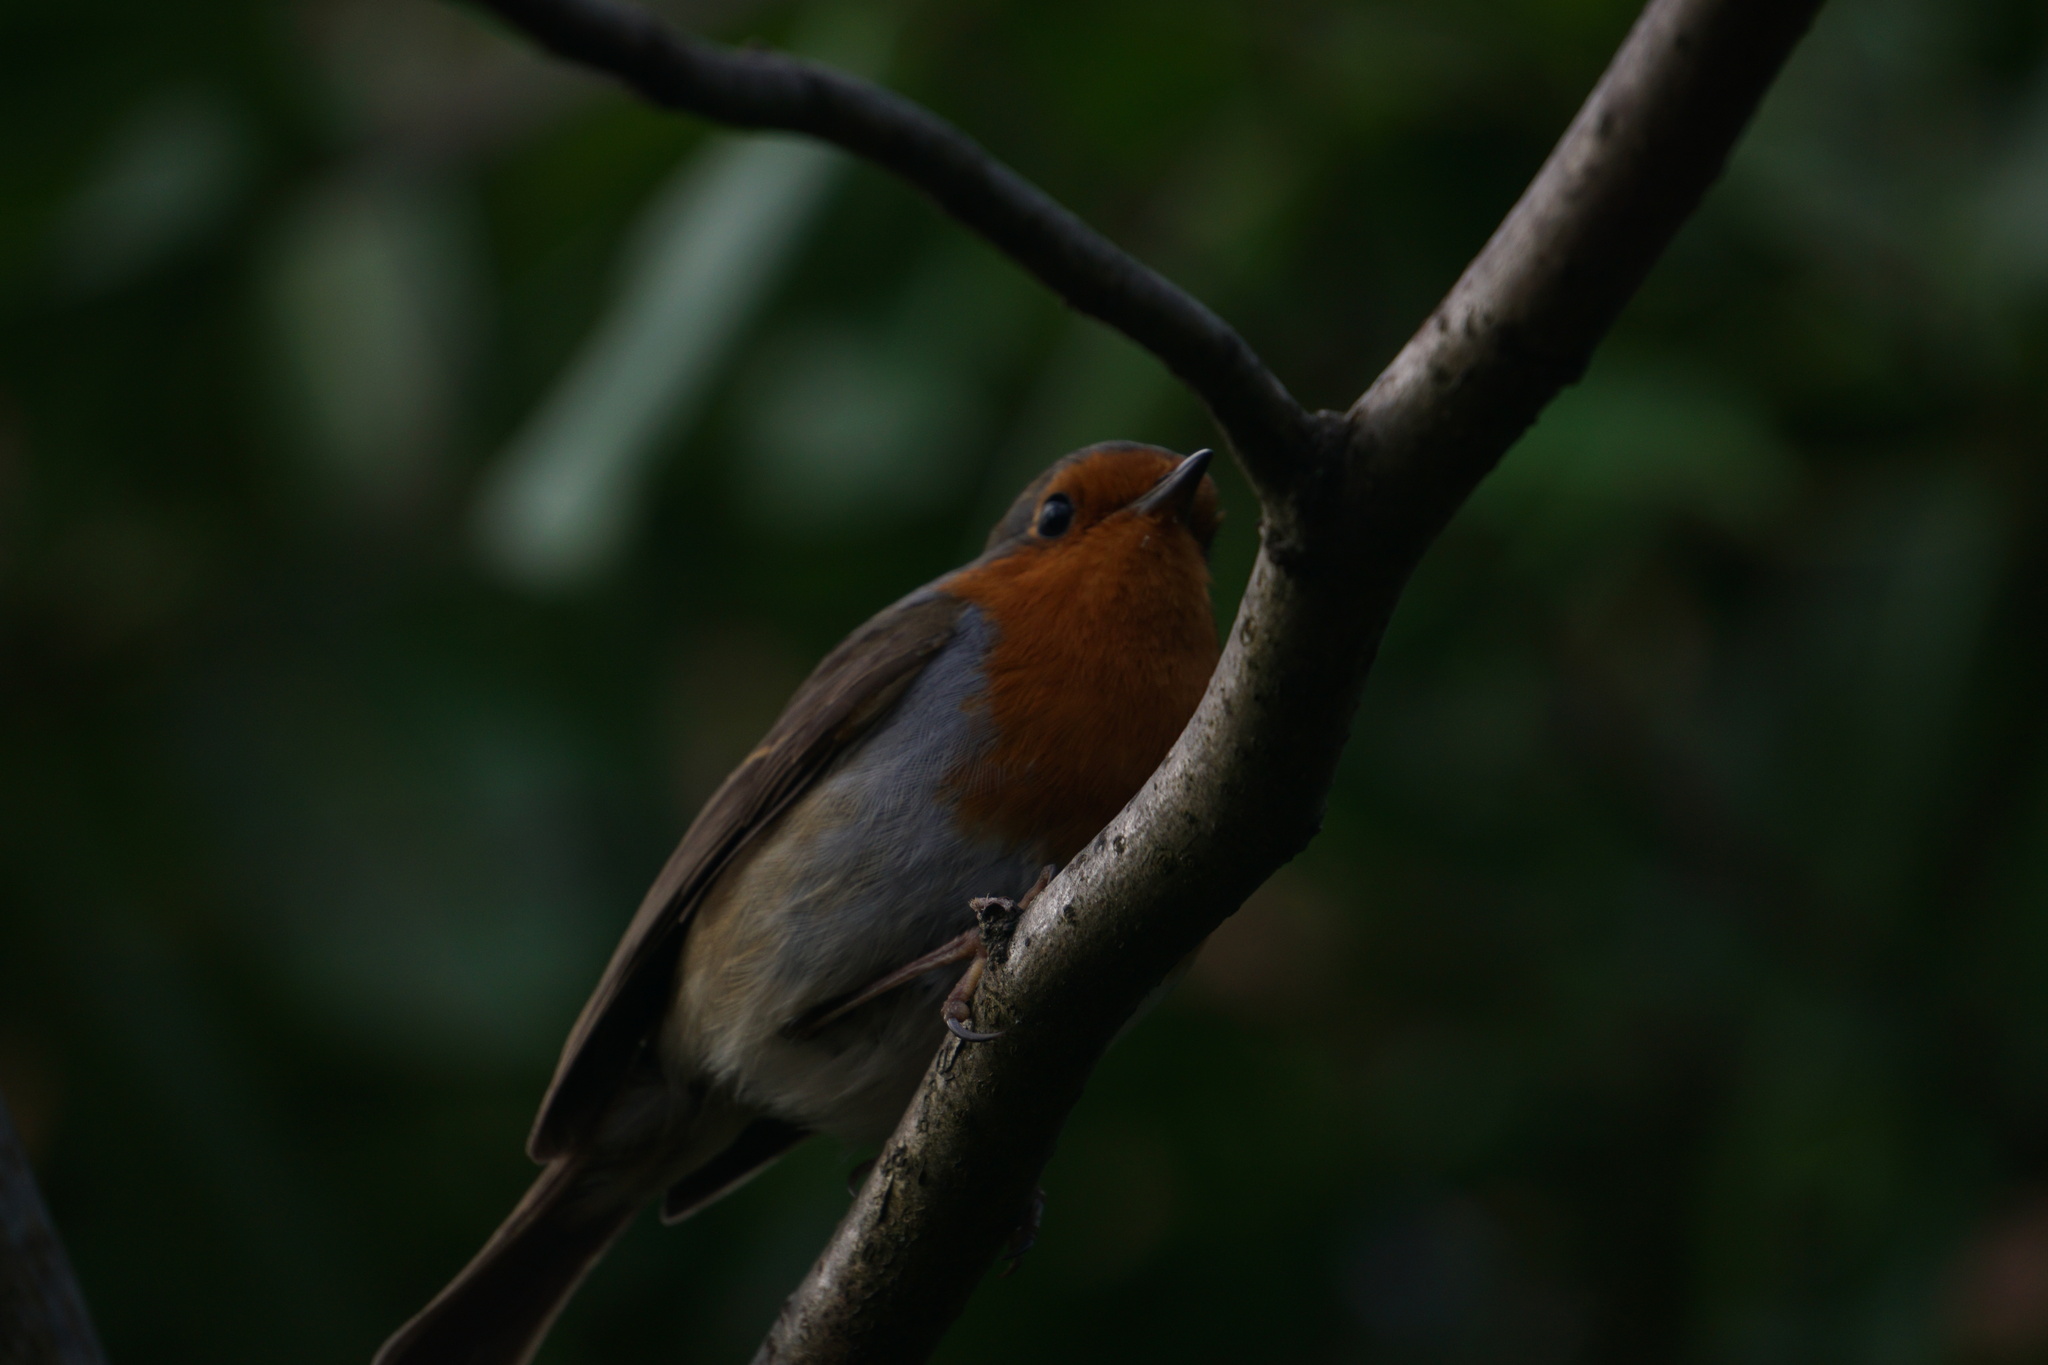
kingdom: Animalia
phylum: Chordata
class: Aves
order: Passeriformes
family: Muscicapidae
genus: Erithacus
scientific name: Erithacus rubecula
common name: European robin
